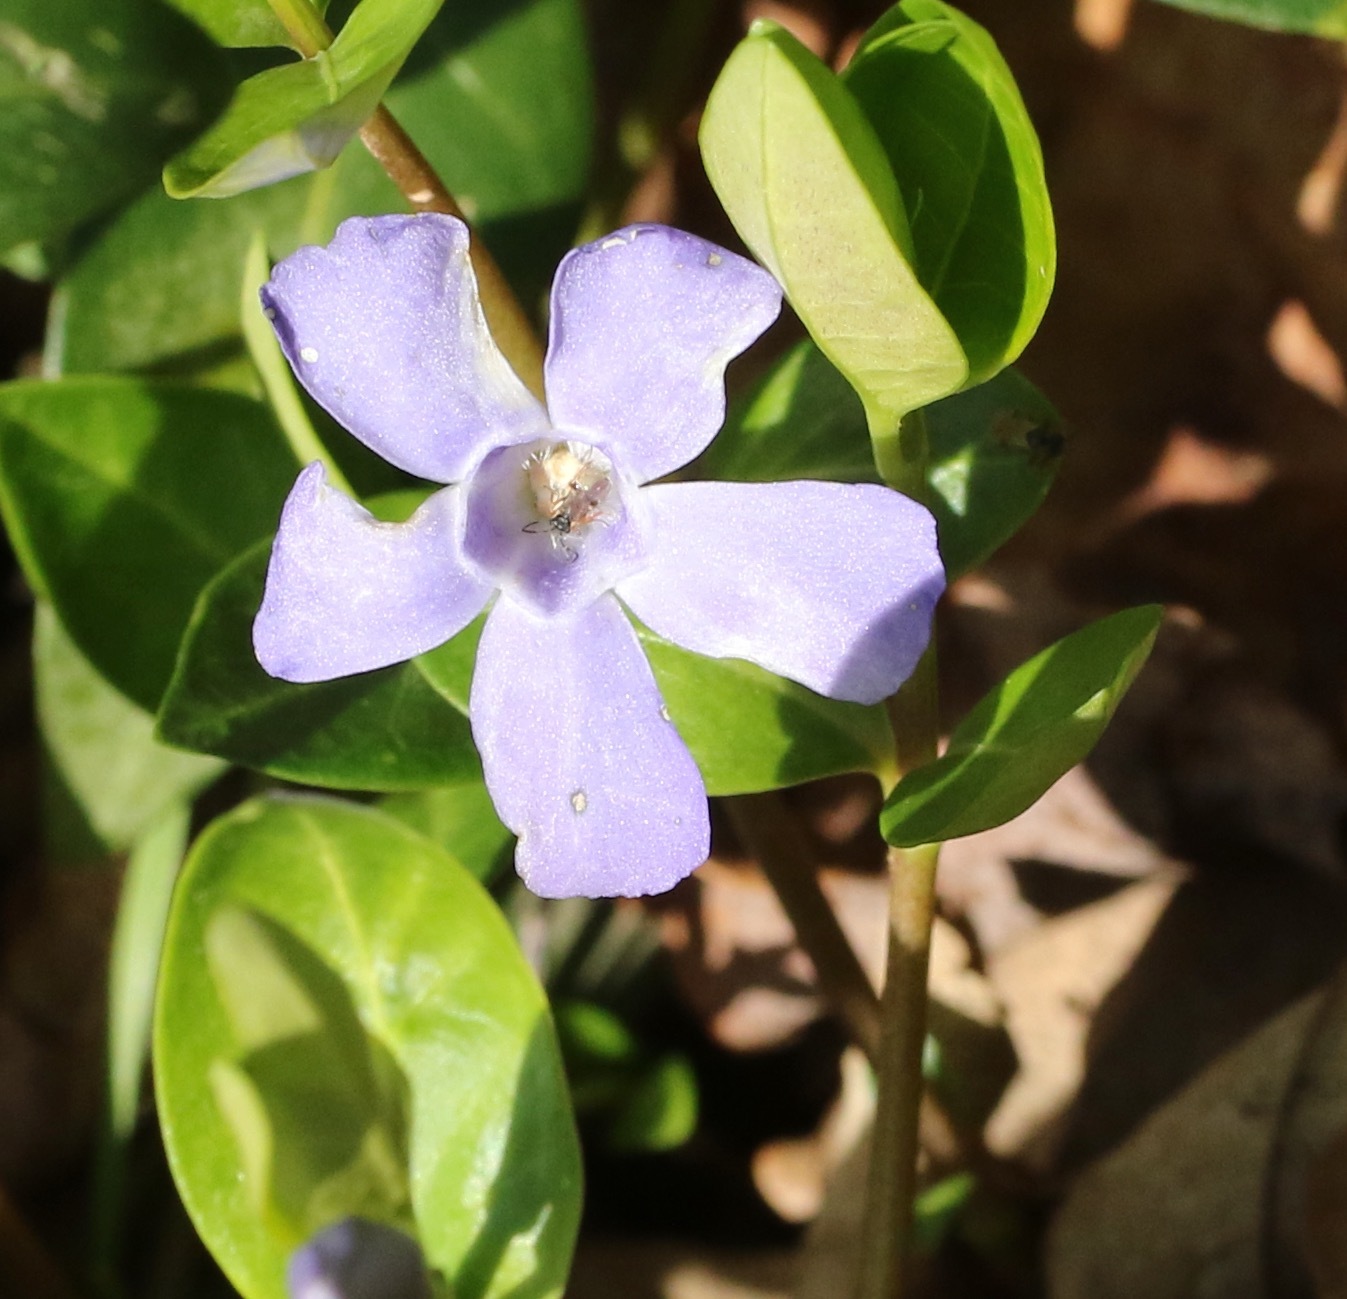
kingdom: Plantae
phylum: Tracheophyta
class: Magnoliopsida
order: Gentianales
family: Apocynaceae
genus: Vinca
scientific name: Vinca minor
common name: Lesser periwinkle
